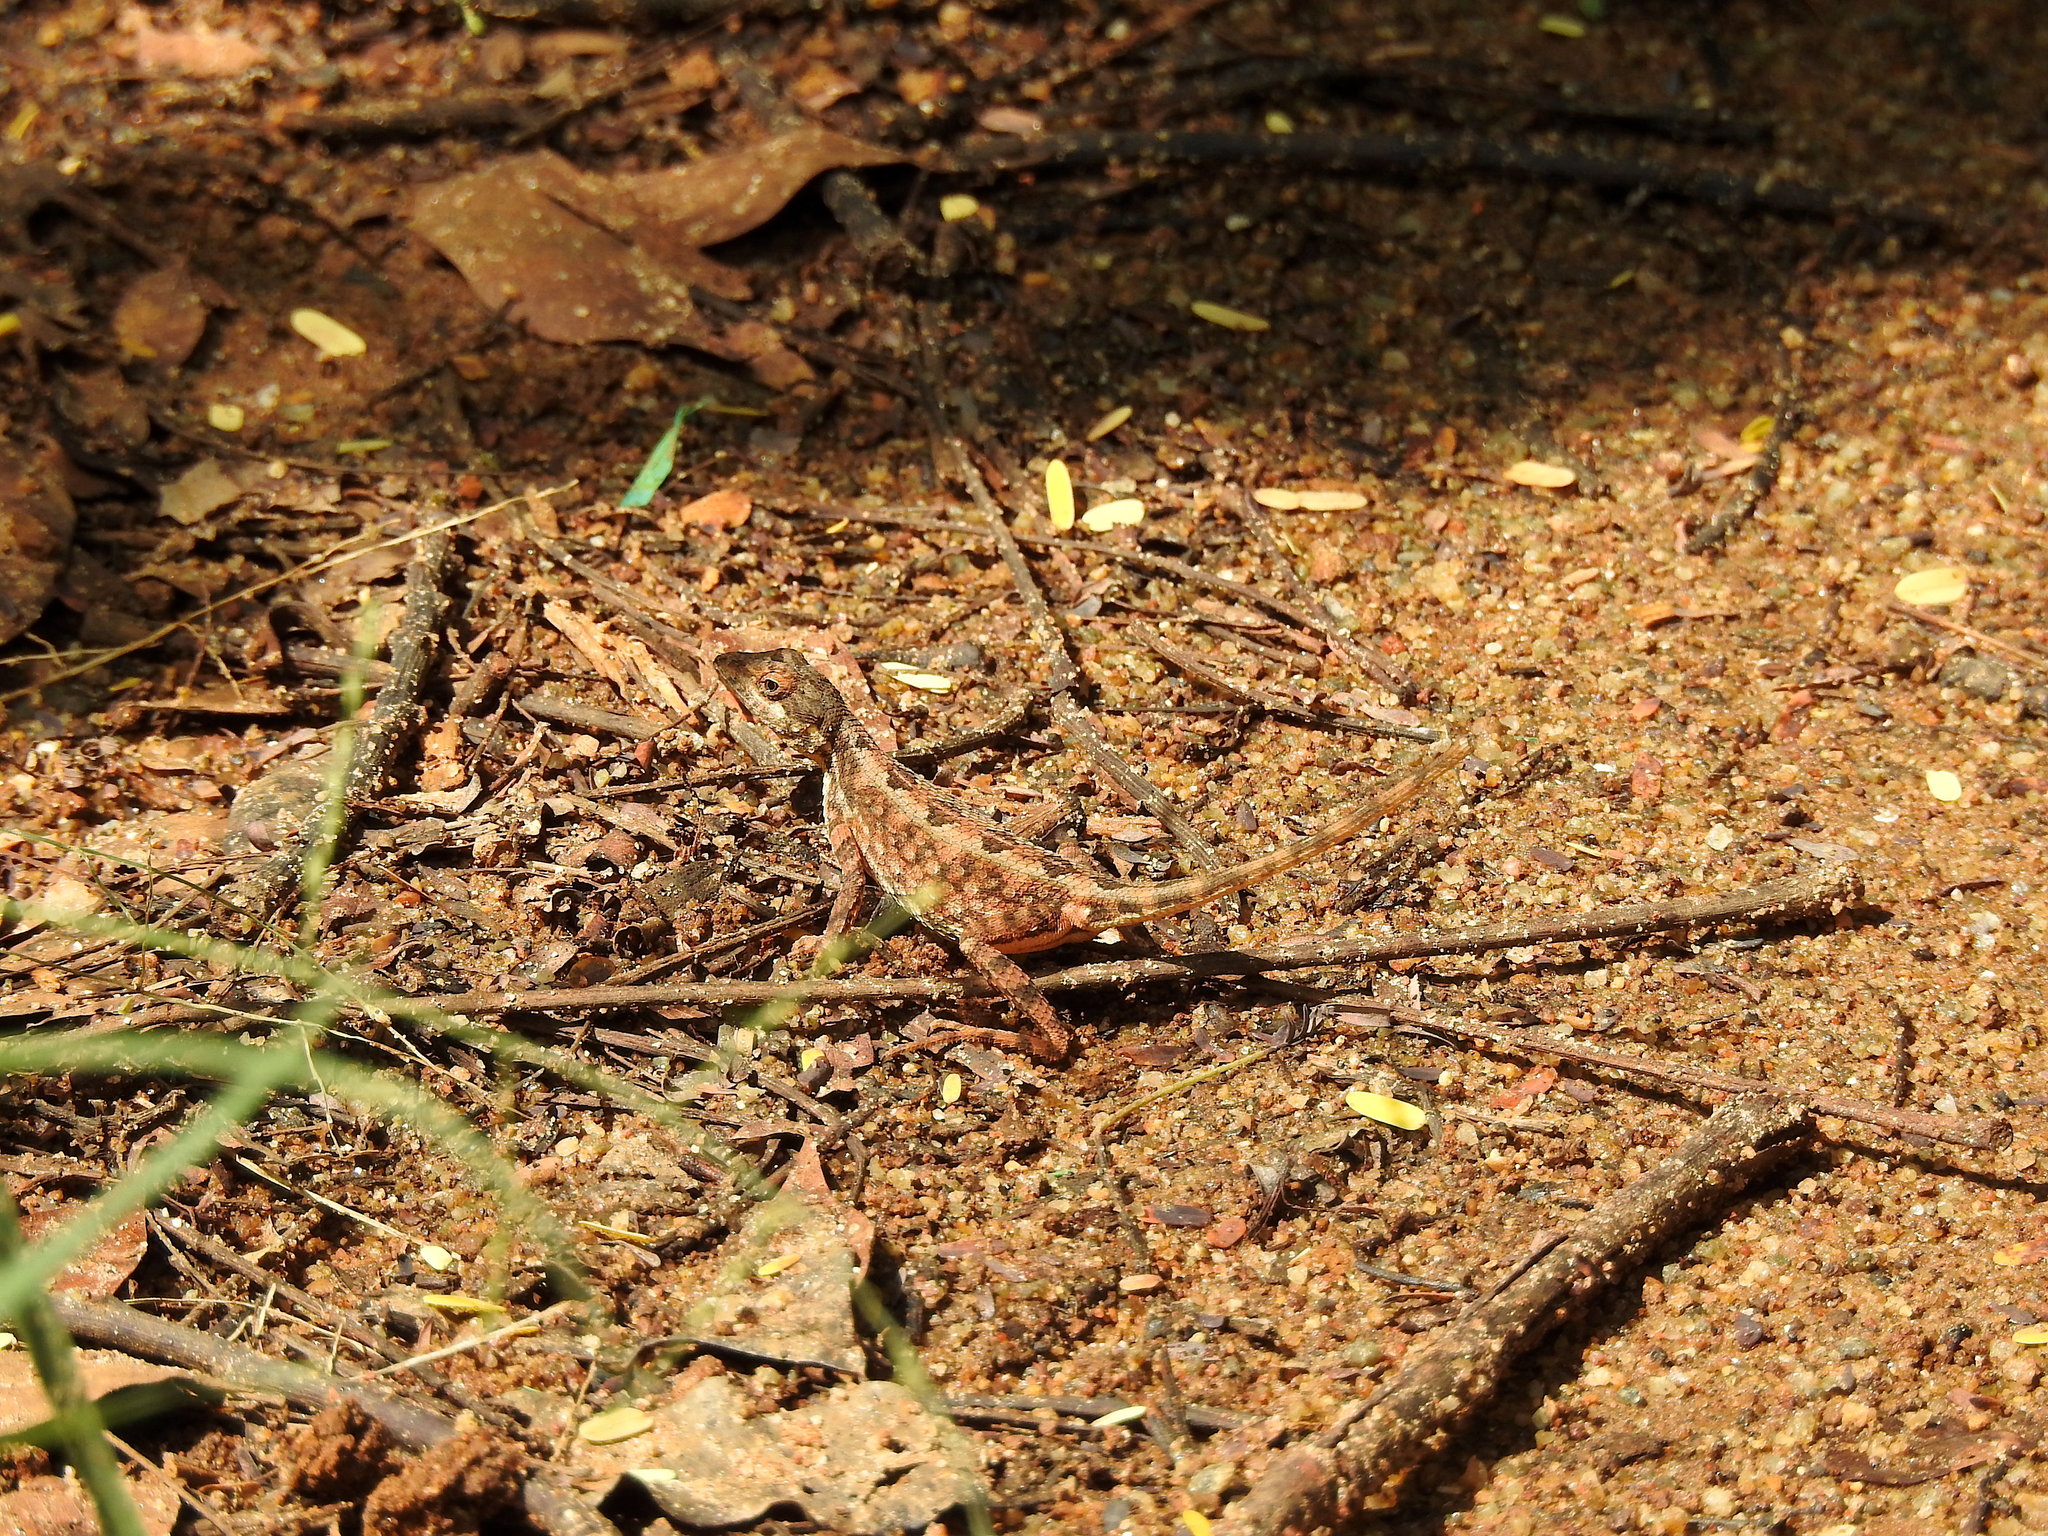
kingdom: Animalia
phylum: Chordata
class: Squamata
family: Agamidae
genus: Sitana
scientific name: Sitana marudhamneydhal
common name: Attenborough’s fan-throated lizard
